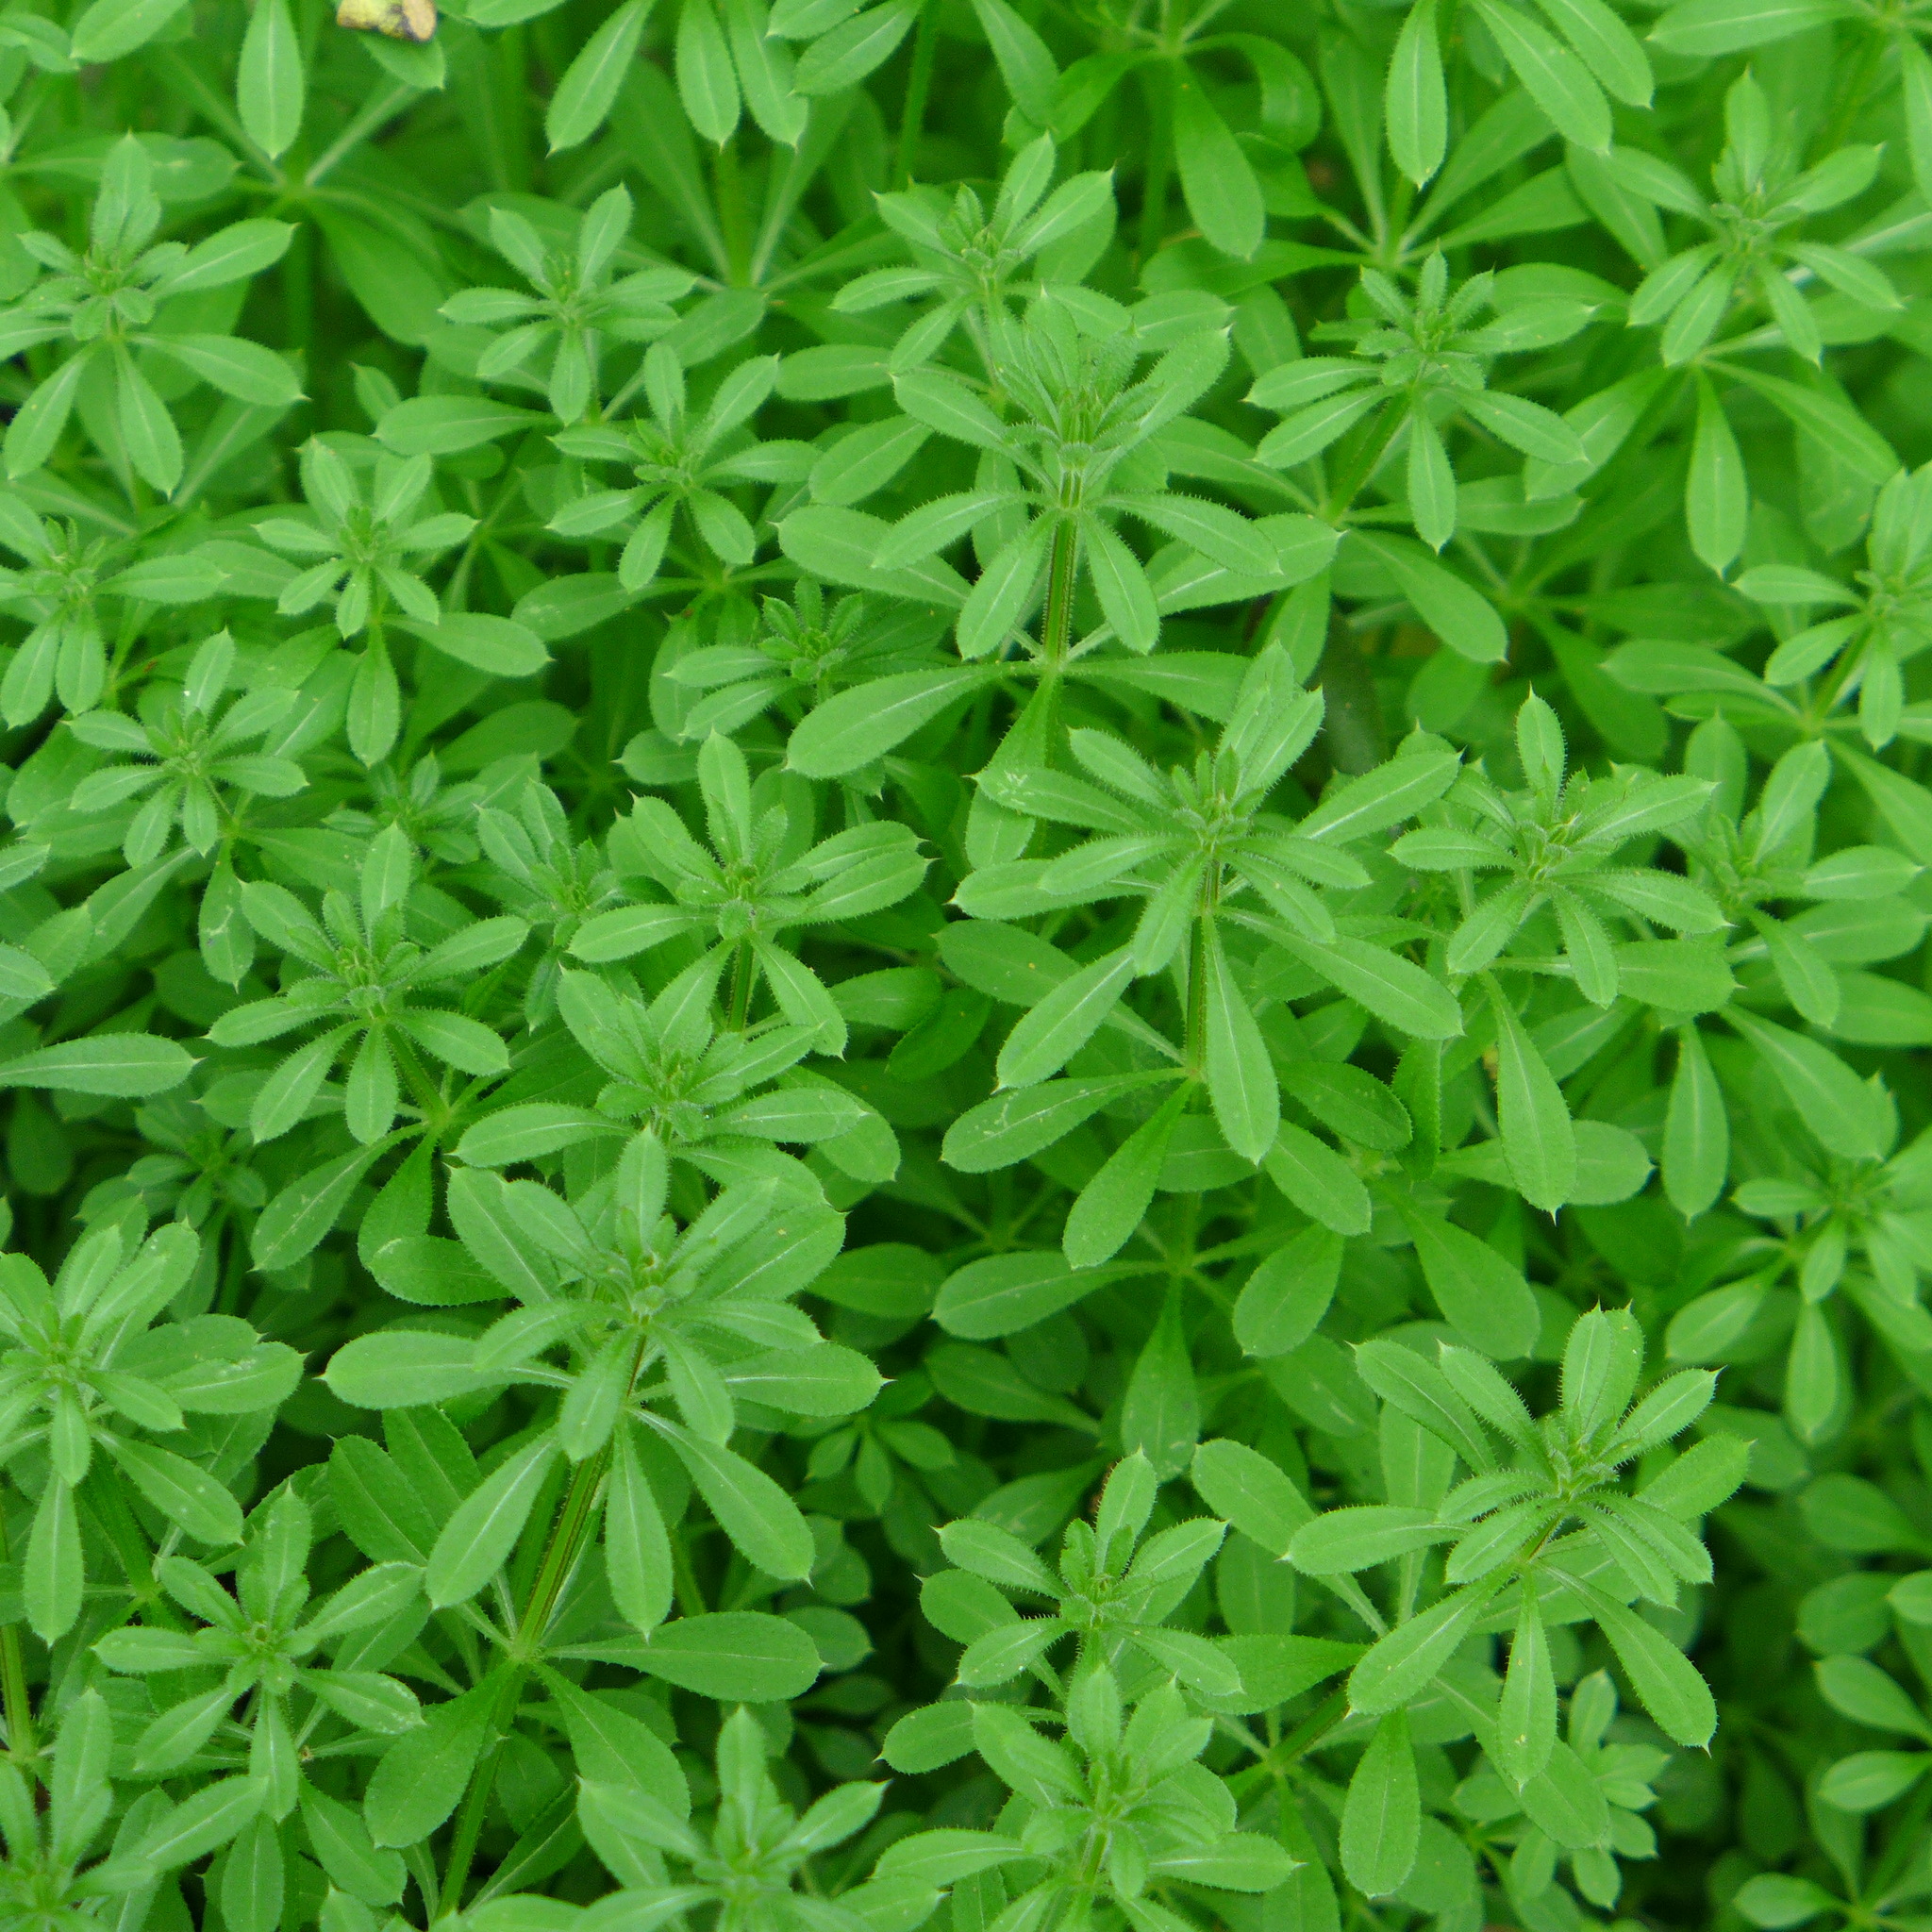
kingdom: Plantae
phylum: Tracheophyta
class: Magnoliopsida
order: Gentianales
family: Rubiaceae
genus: Galium
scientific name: Galium aparine
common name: Cleavers
